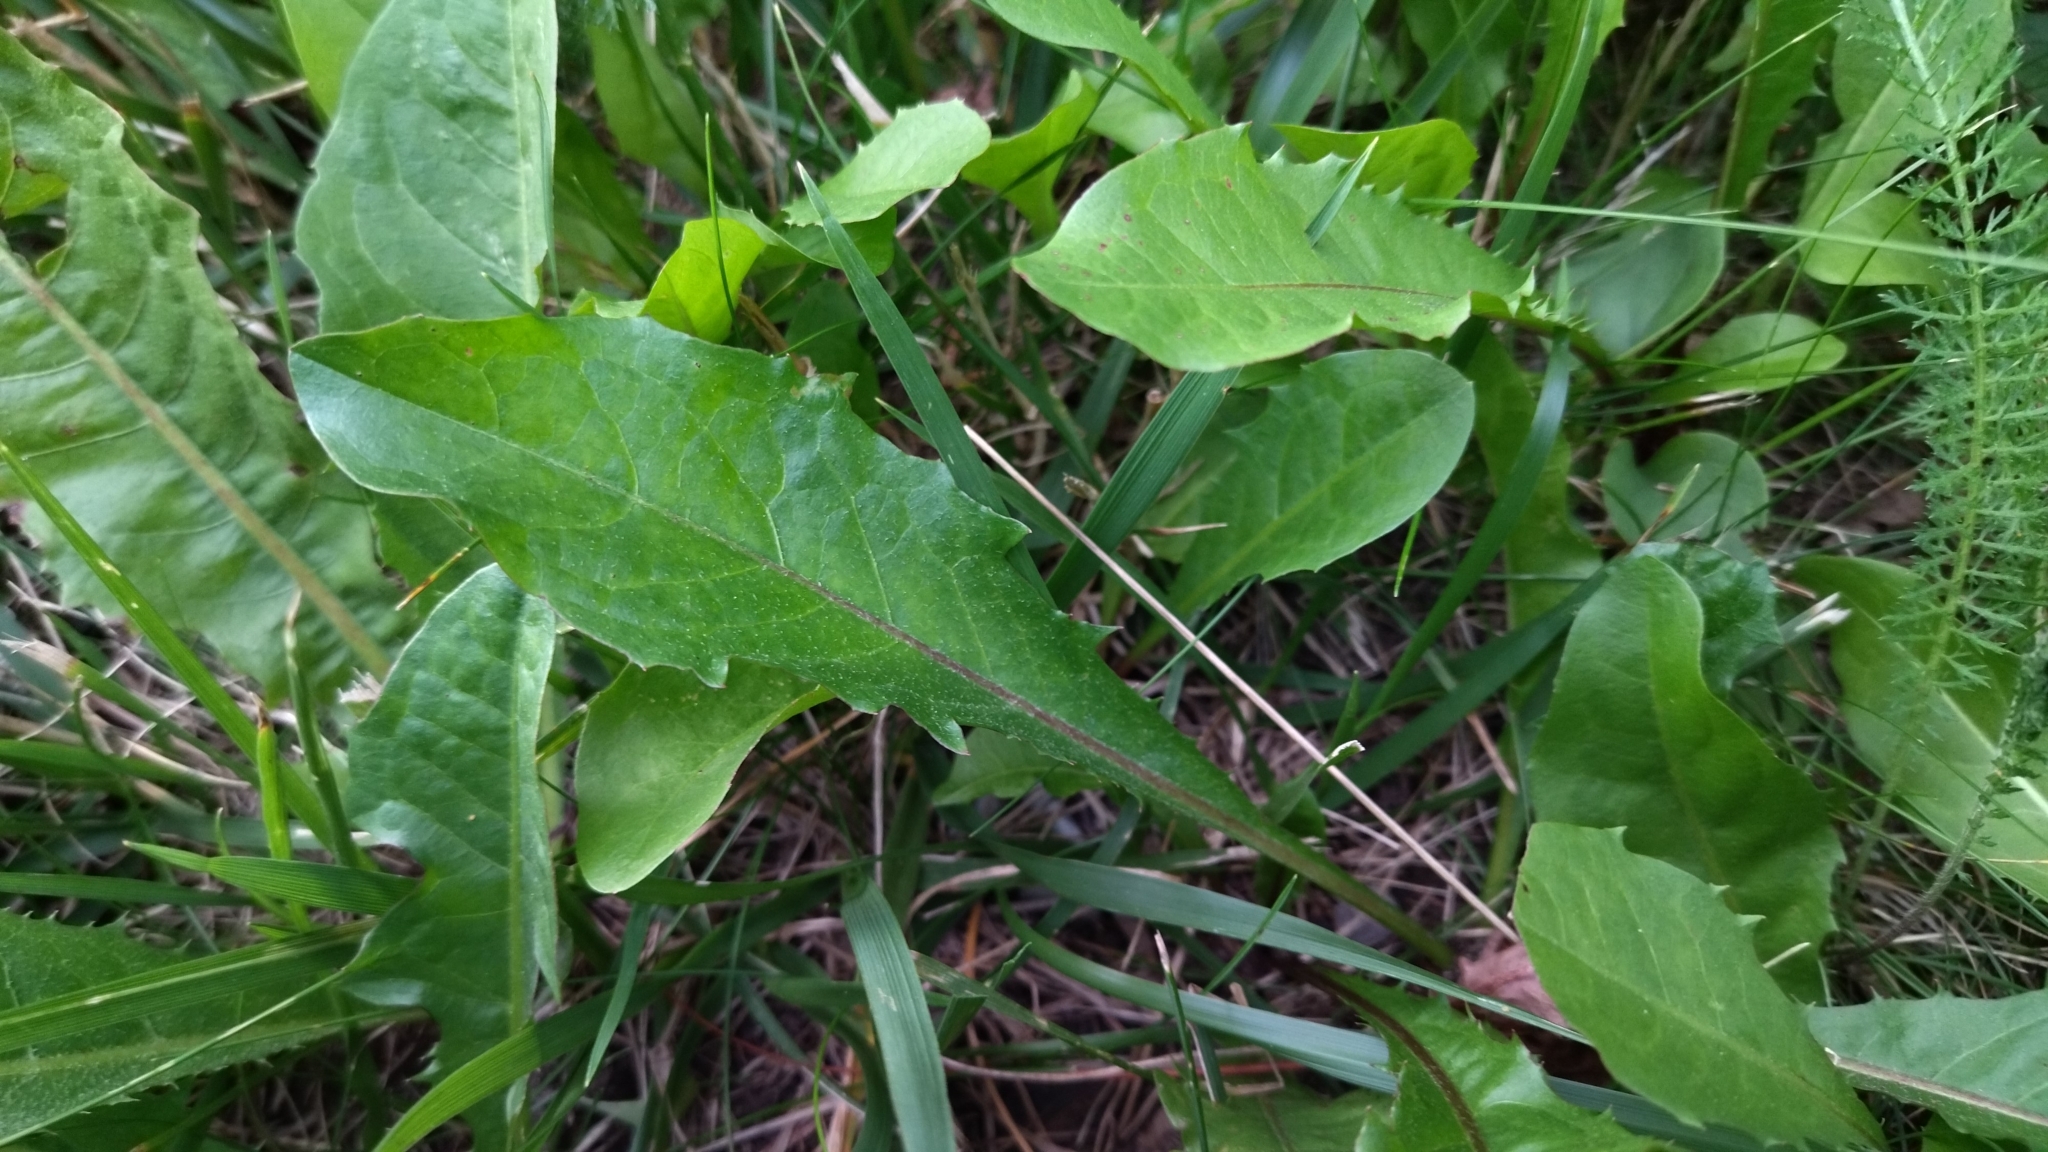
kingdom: Plantae
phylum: Tracheophyta
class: Magnoliopsida
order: Asterales
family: Asteraceae
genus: Taraxacum
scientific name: Taraxacum officinale
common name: Common dandelion
